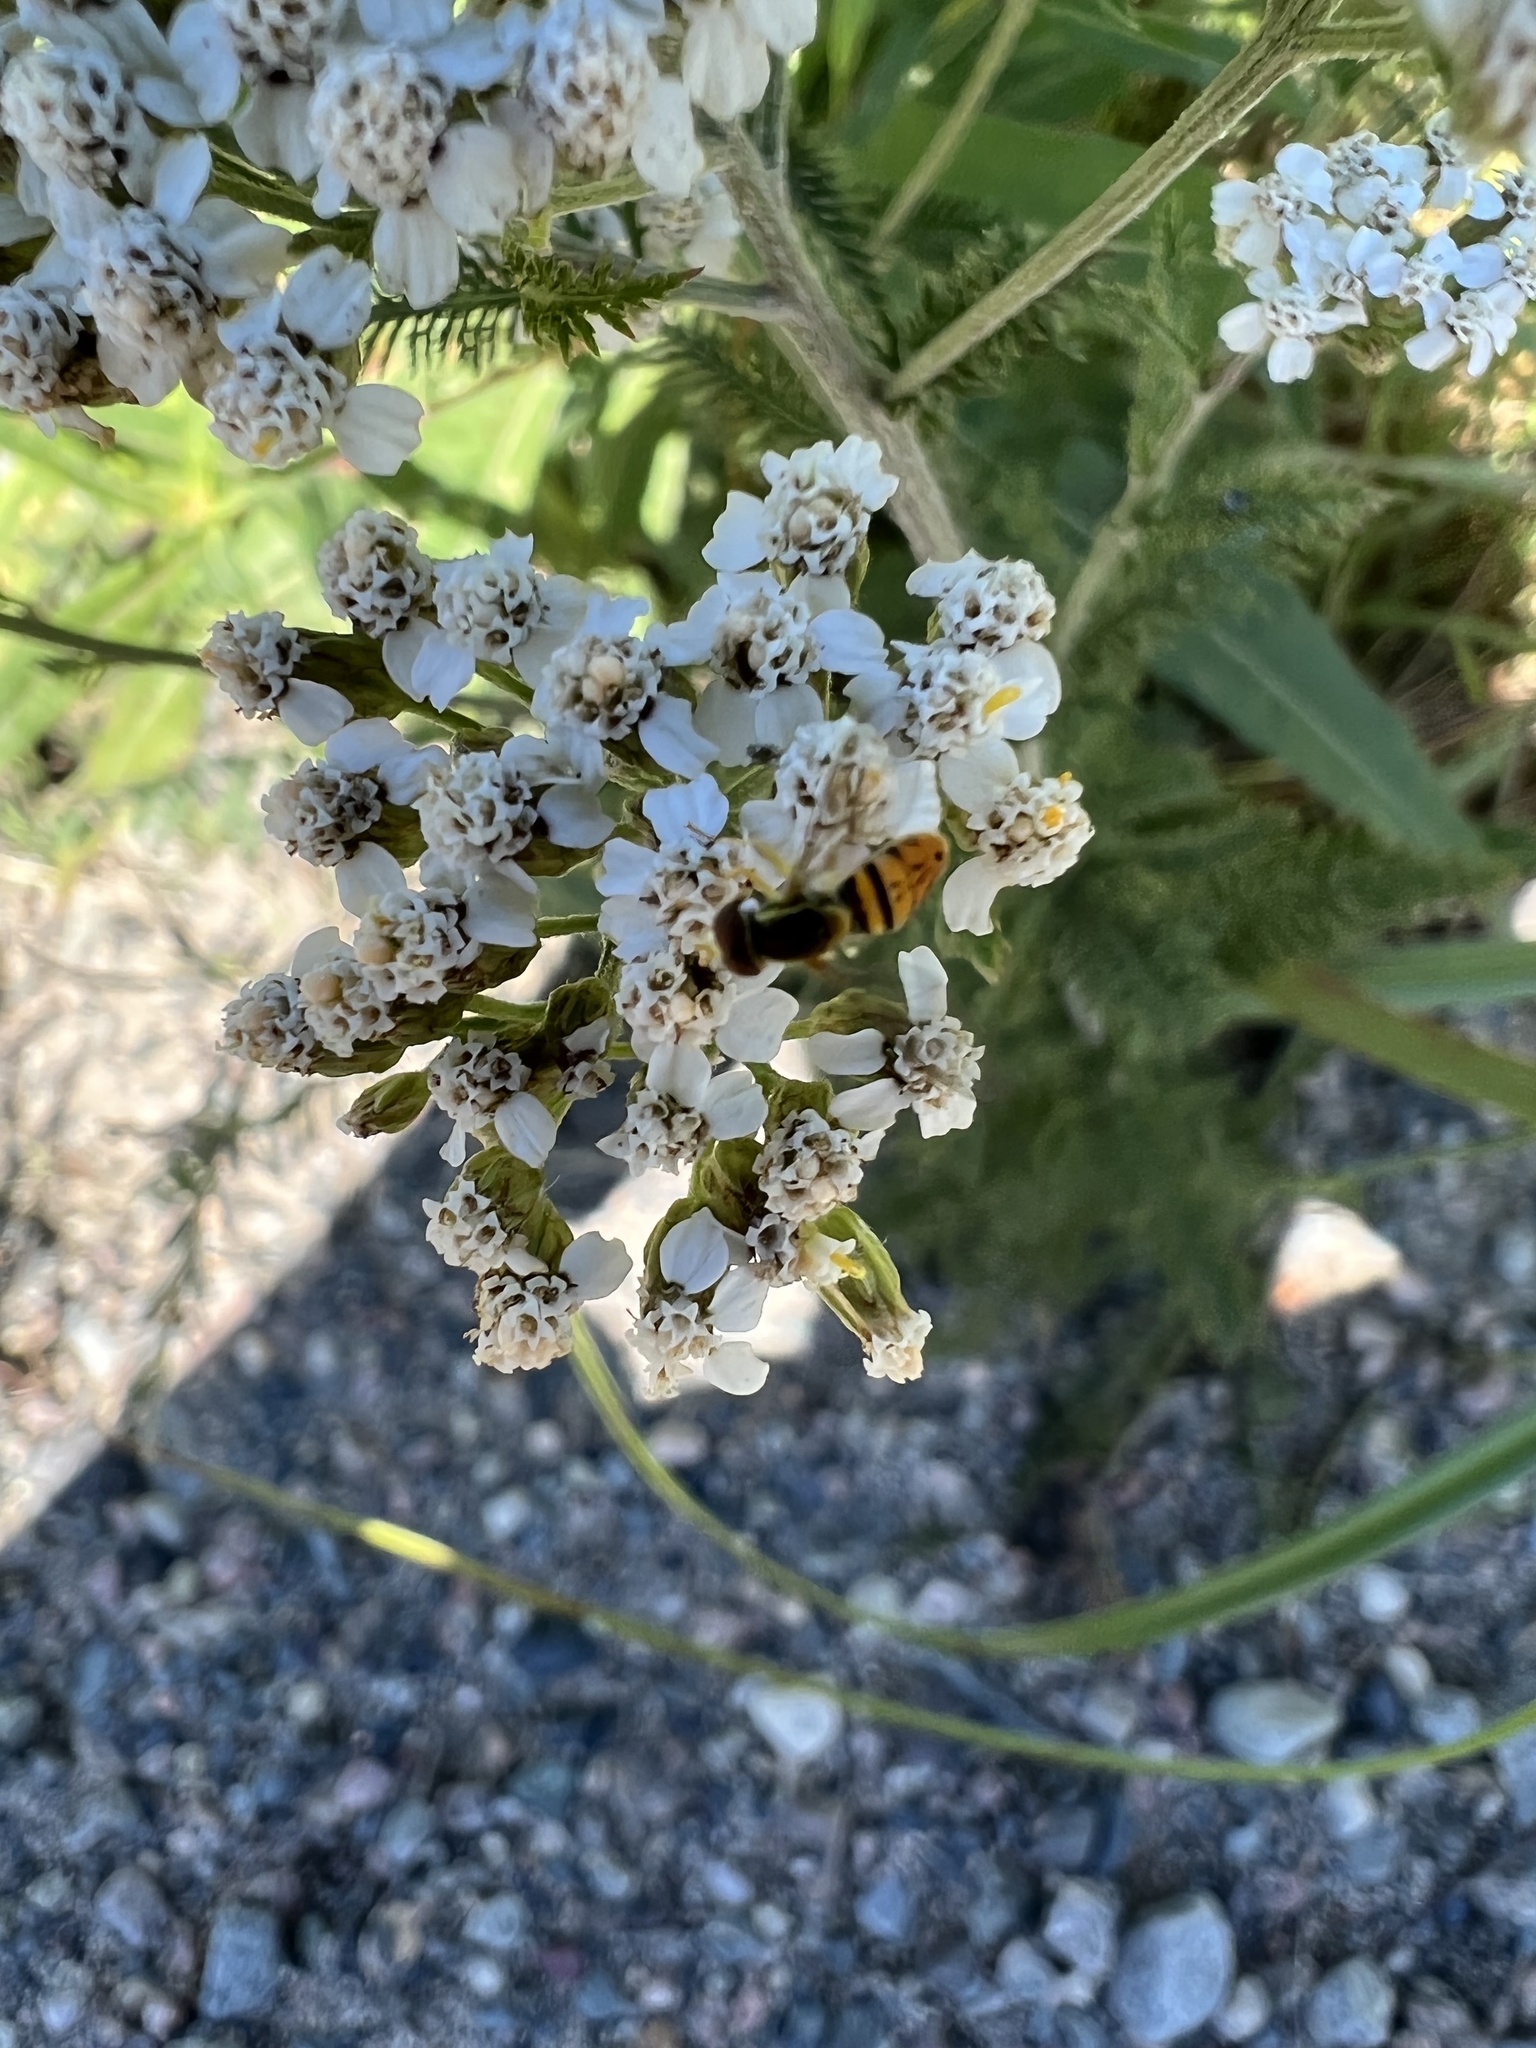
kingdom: Animalia
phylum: Arthropoda
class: Insecta
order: Diptera
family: Syrphidae
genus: Toxomerus
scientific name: Toxomerus marginatus
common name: Syrphid fly
